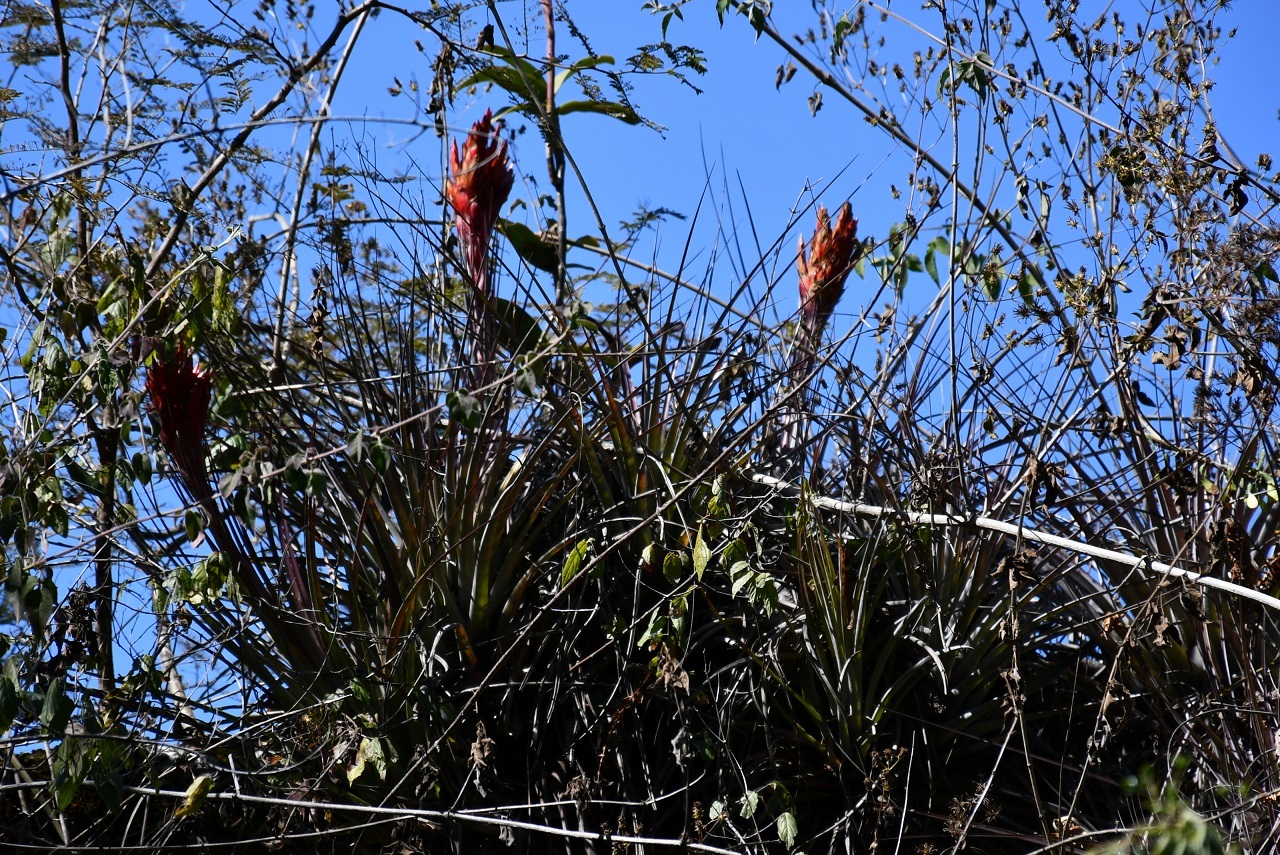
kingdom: Plantae
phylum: Tracheophyta
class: Liliopsida
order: Poales
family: Bromeliaceae
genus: Tillandsia
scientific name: Tillandsia rotundata
